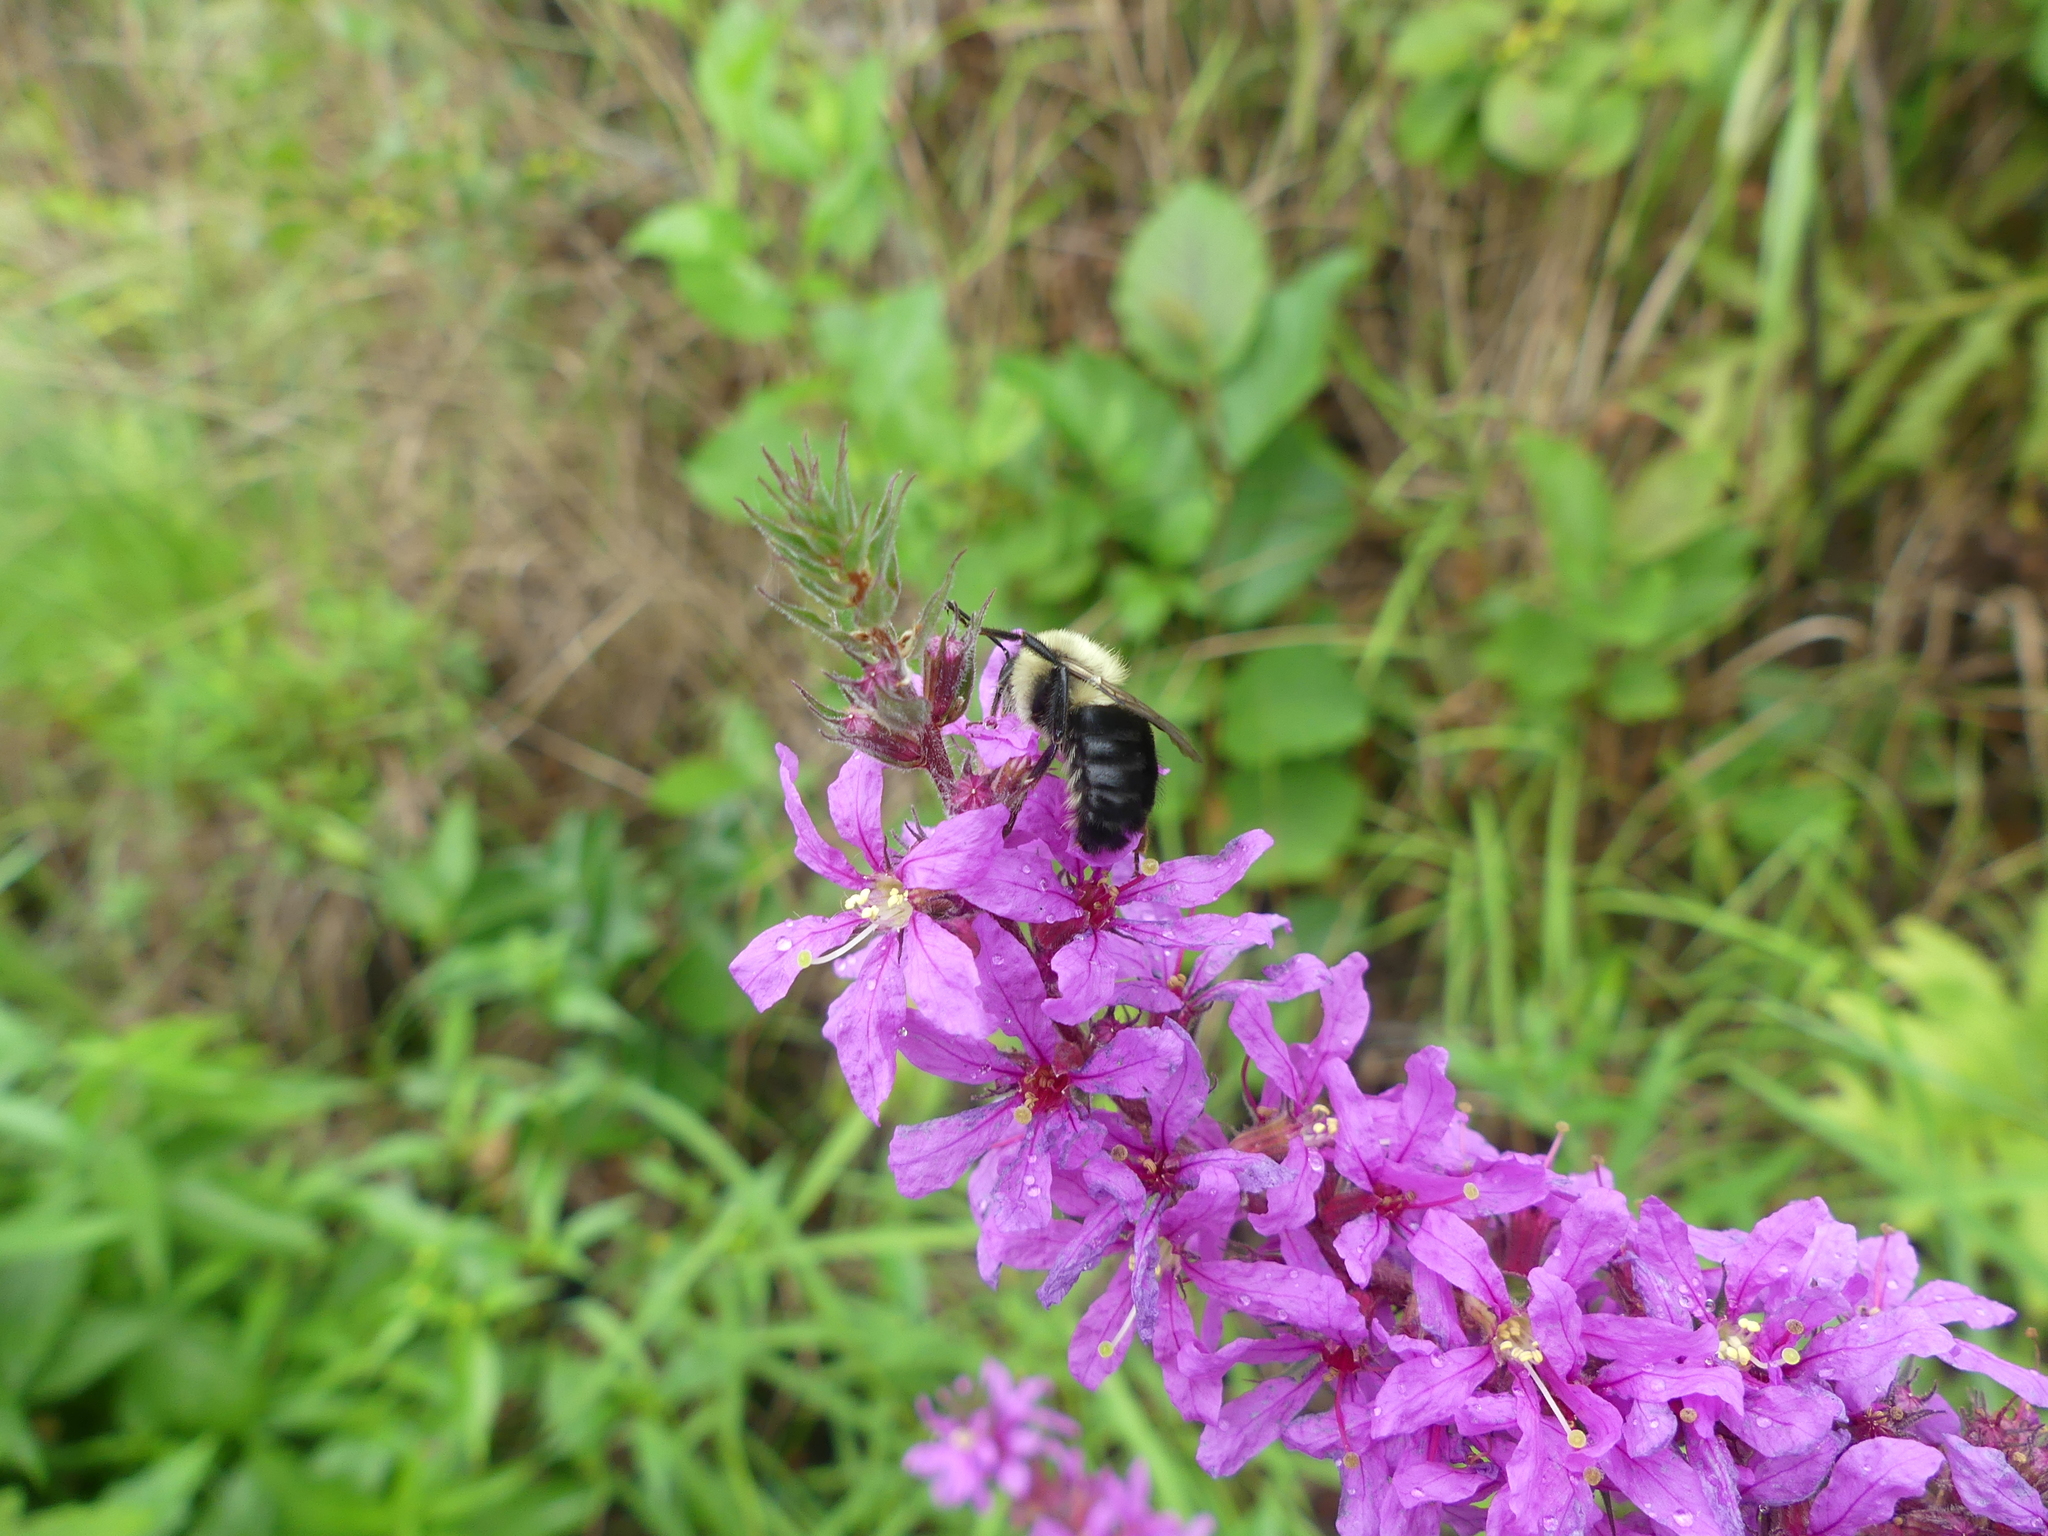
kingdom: Animalia
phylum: Arthropoda
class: Insecta
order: Hymenoptera
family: Apidae
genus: Bombus
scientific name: Bombus impatiens
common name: Common eastern bumble bee
